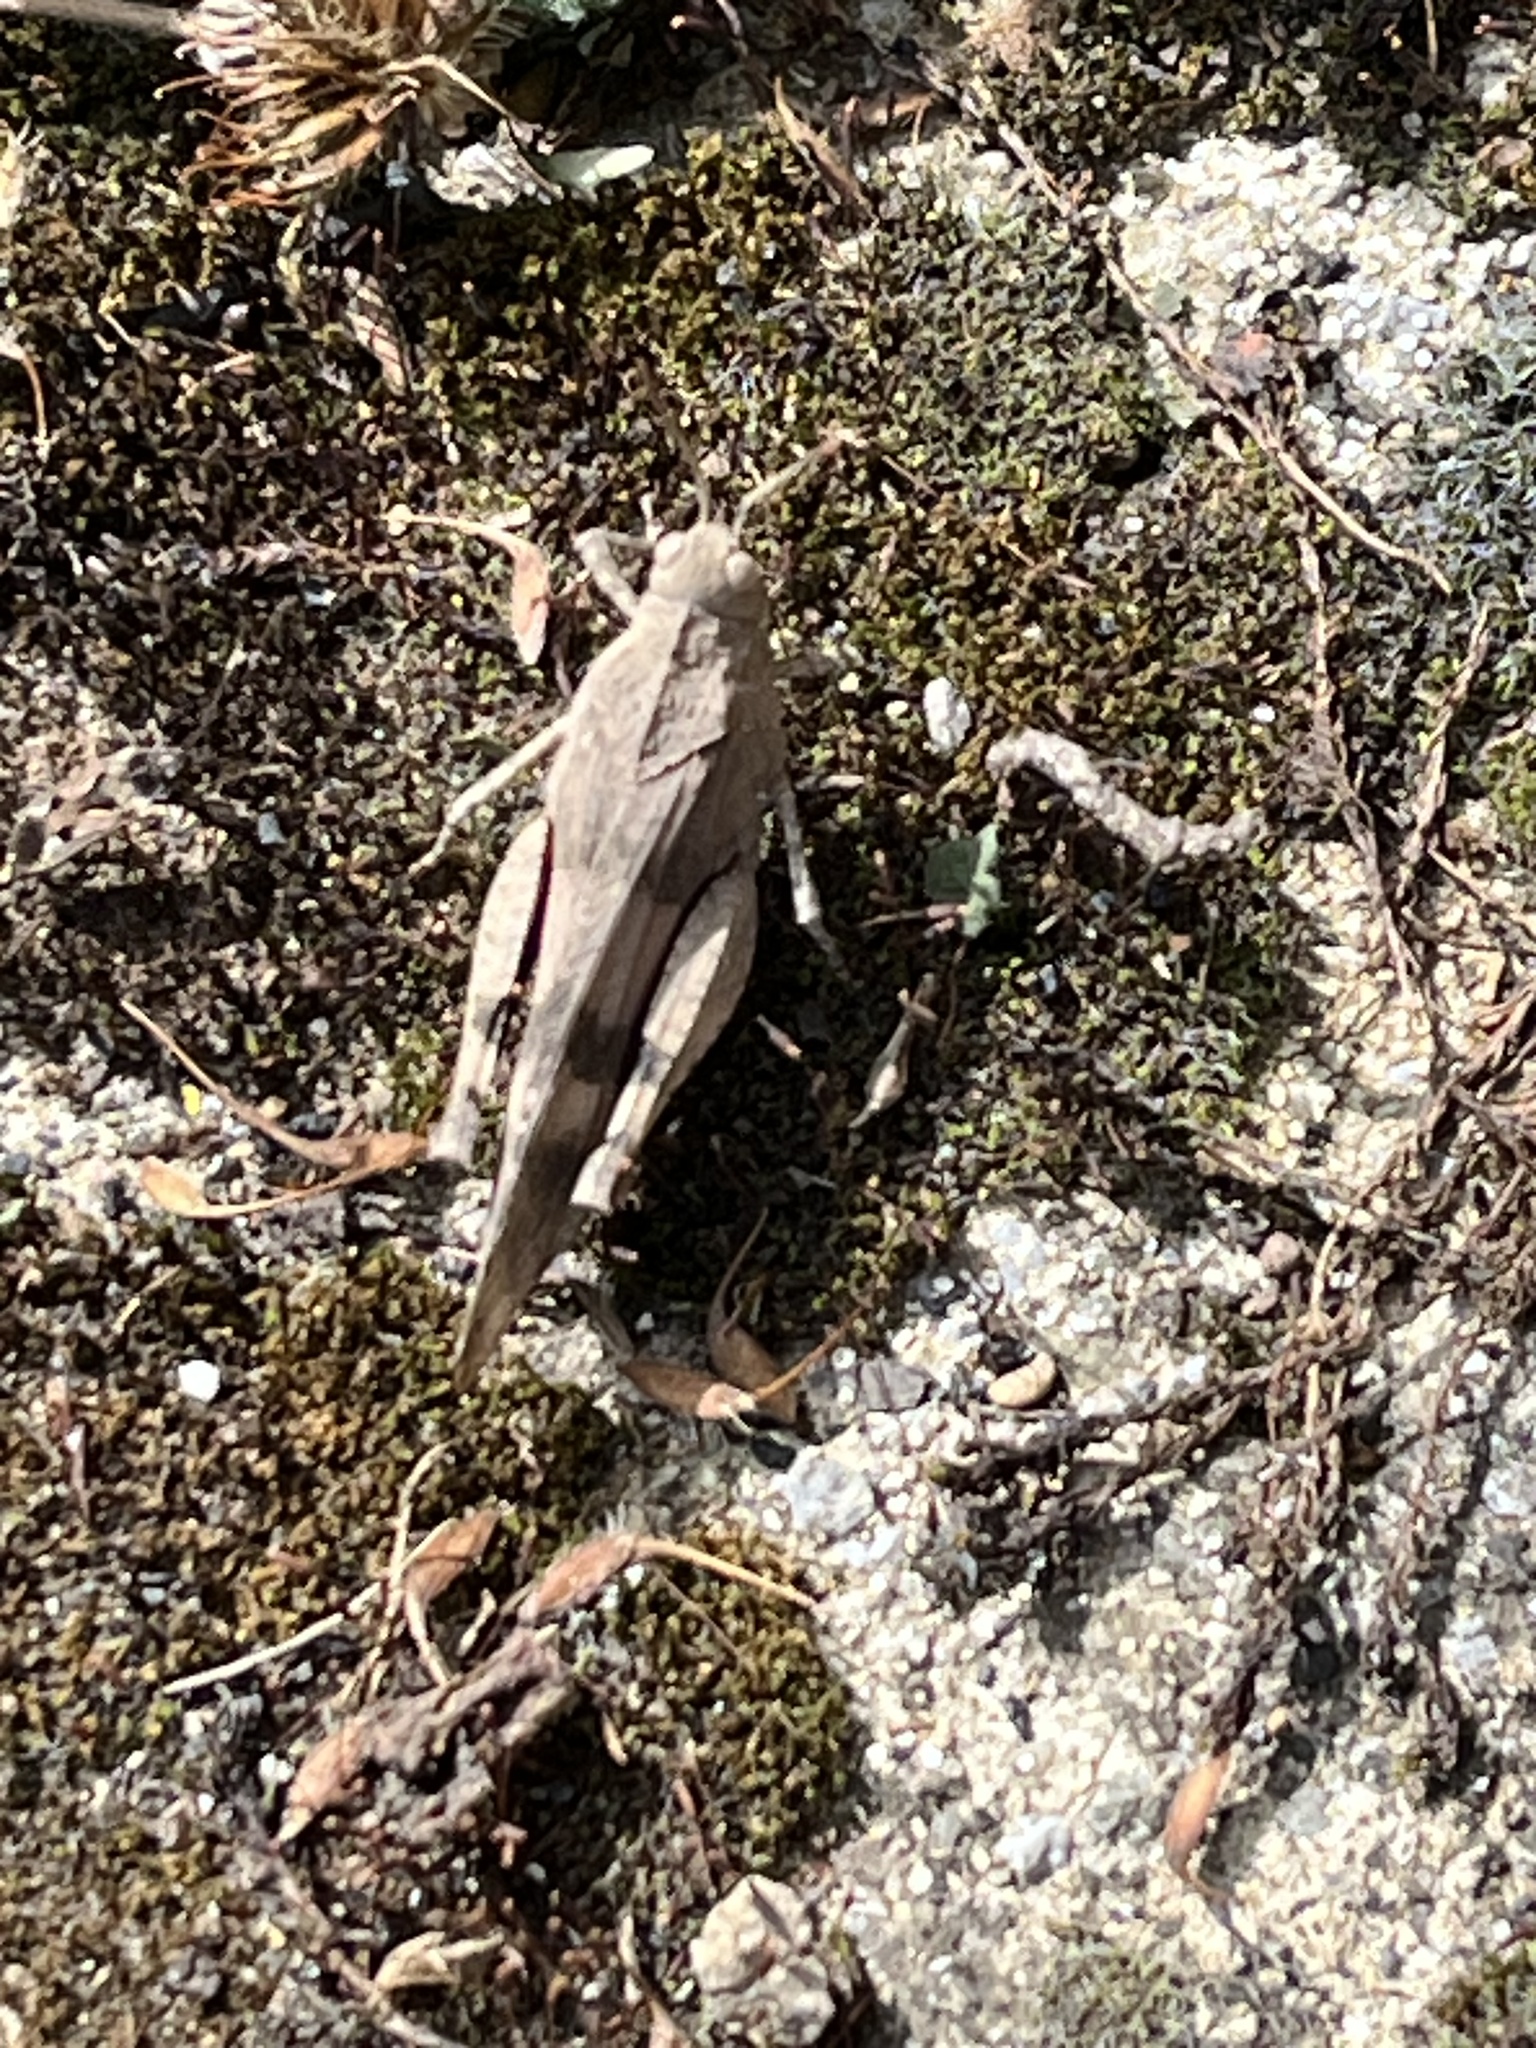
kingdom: Animalia
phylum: Arthropoda
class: Insecta
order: Orthoptera
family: Acrididae
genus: Oedipoda
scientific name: Oedipoda caerulescens
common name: Blue-winged grasshopper
